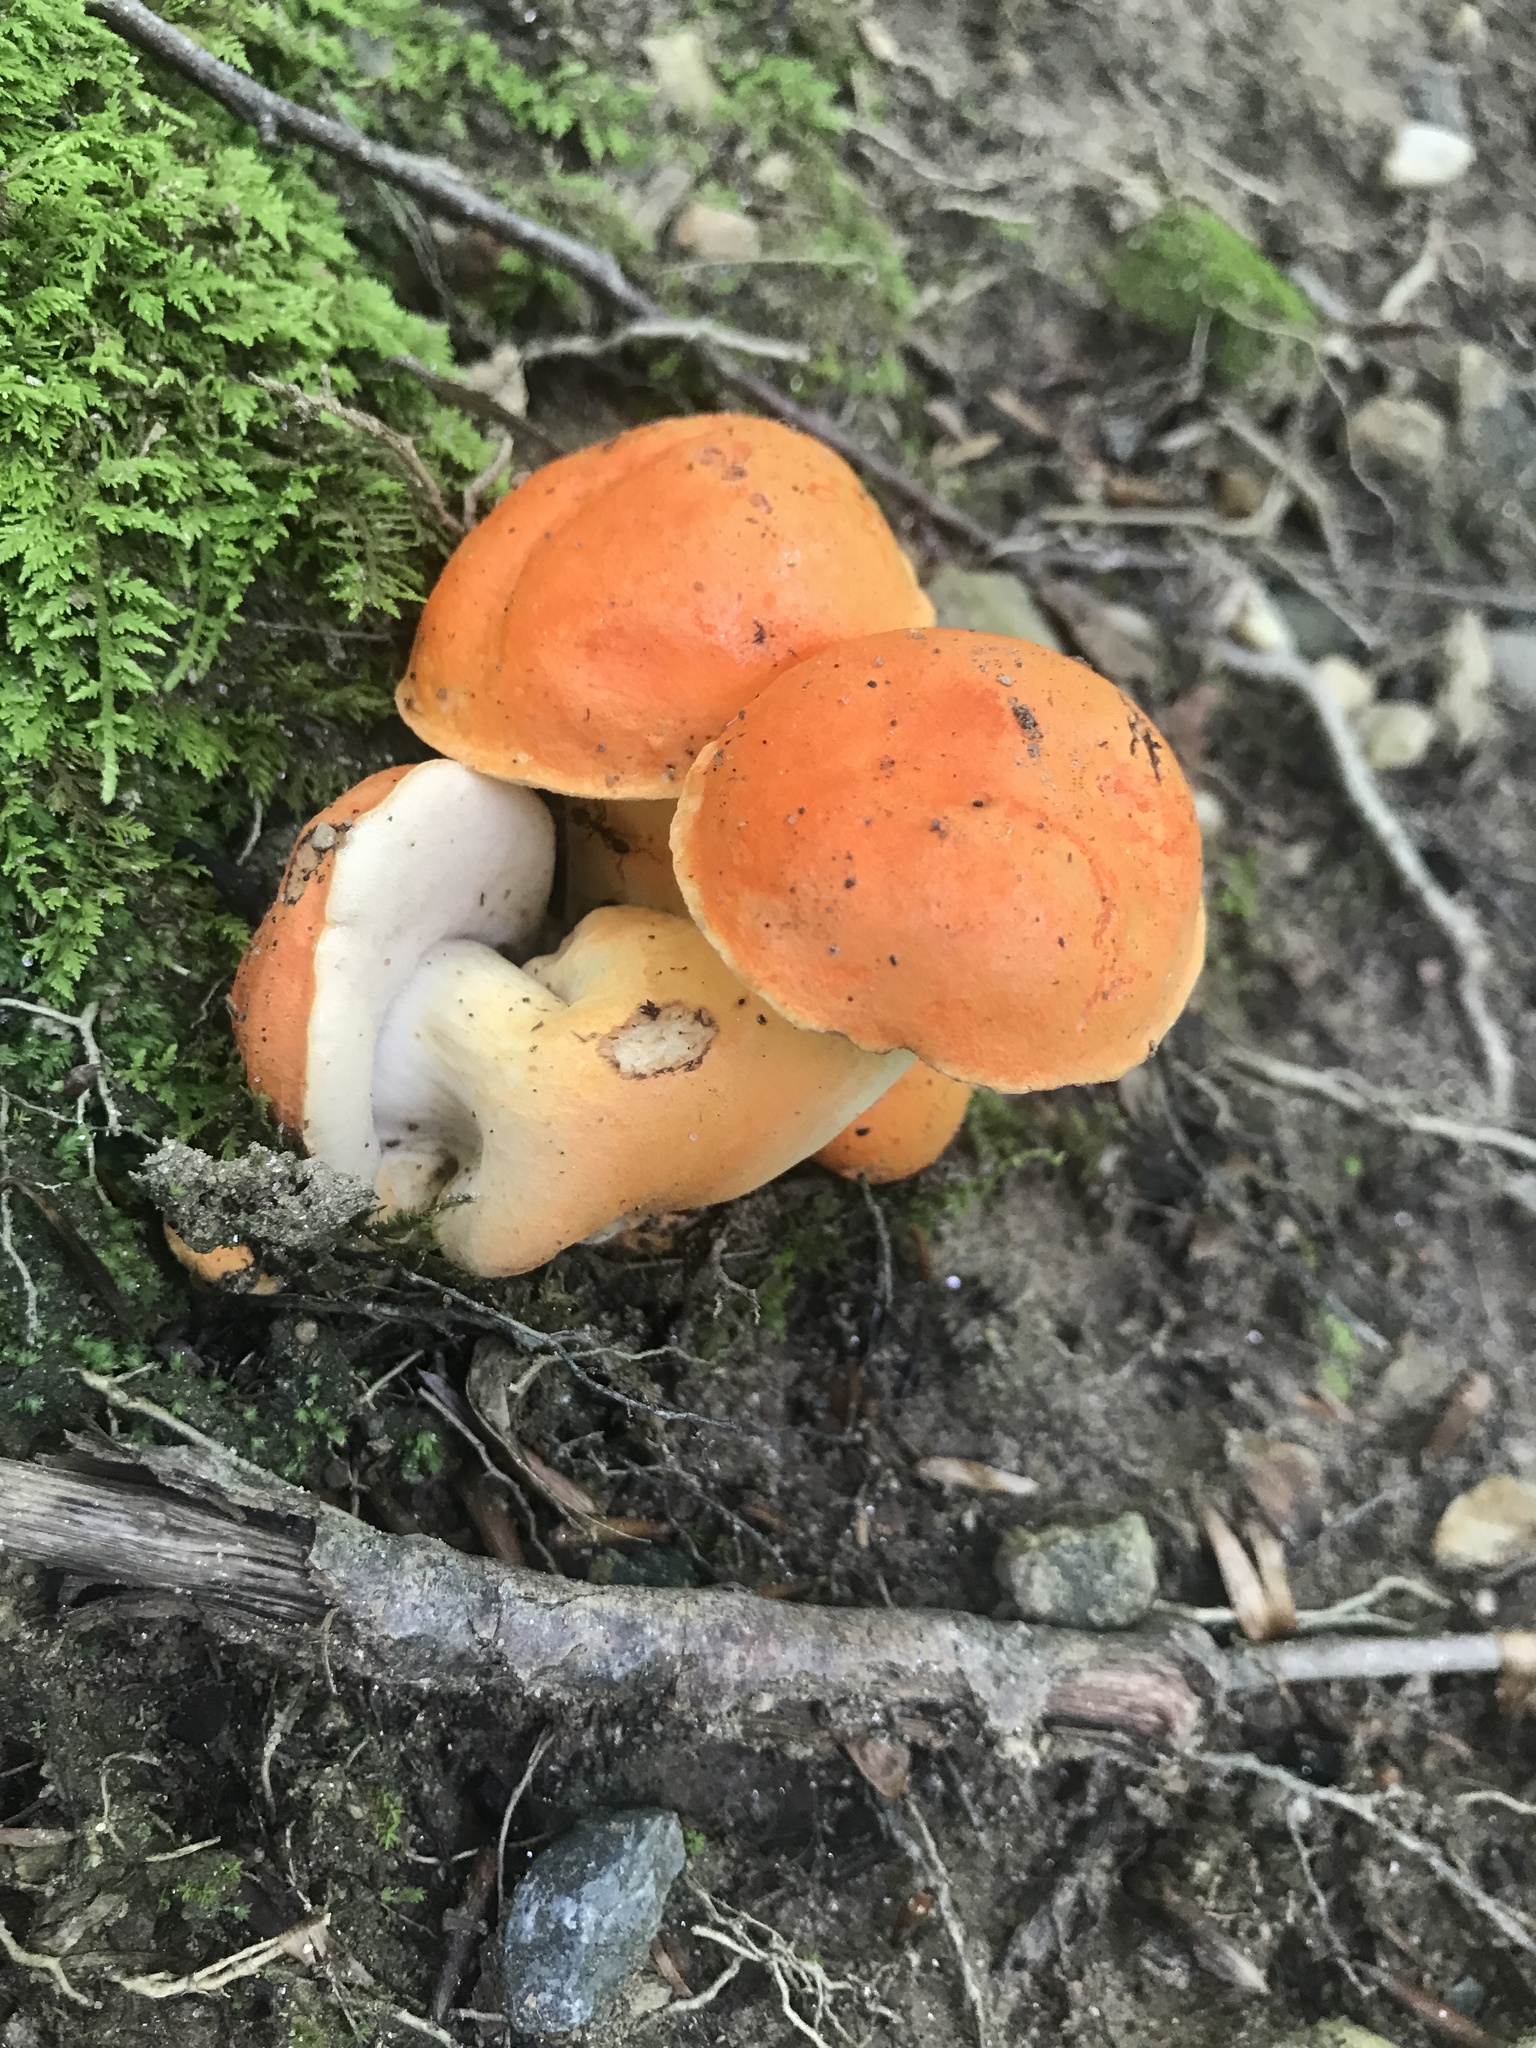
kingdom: Fungi
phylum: Basidiomycota
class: Agaricomycetes
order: Boletales
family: Boletaceae
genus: Tylopilus
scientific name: Tylopilus balloui
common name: Burnt-orange bolete
